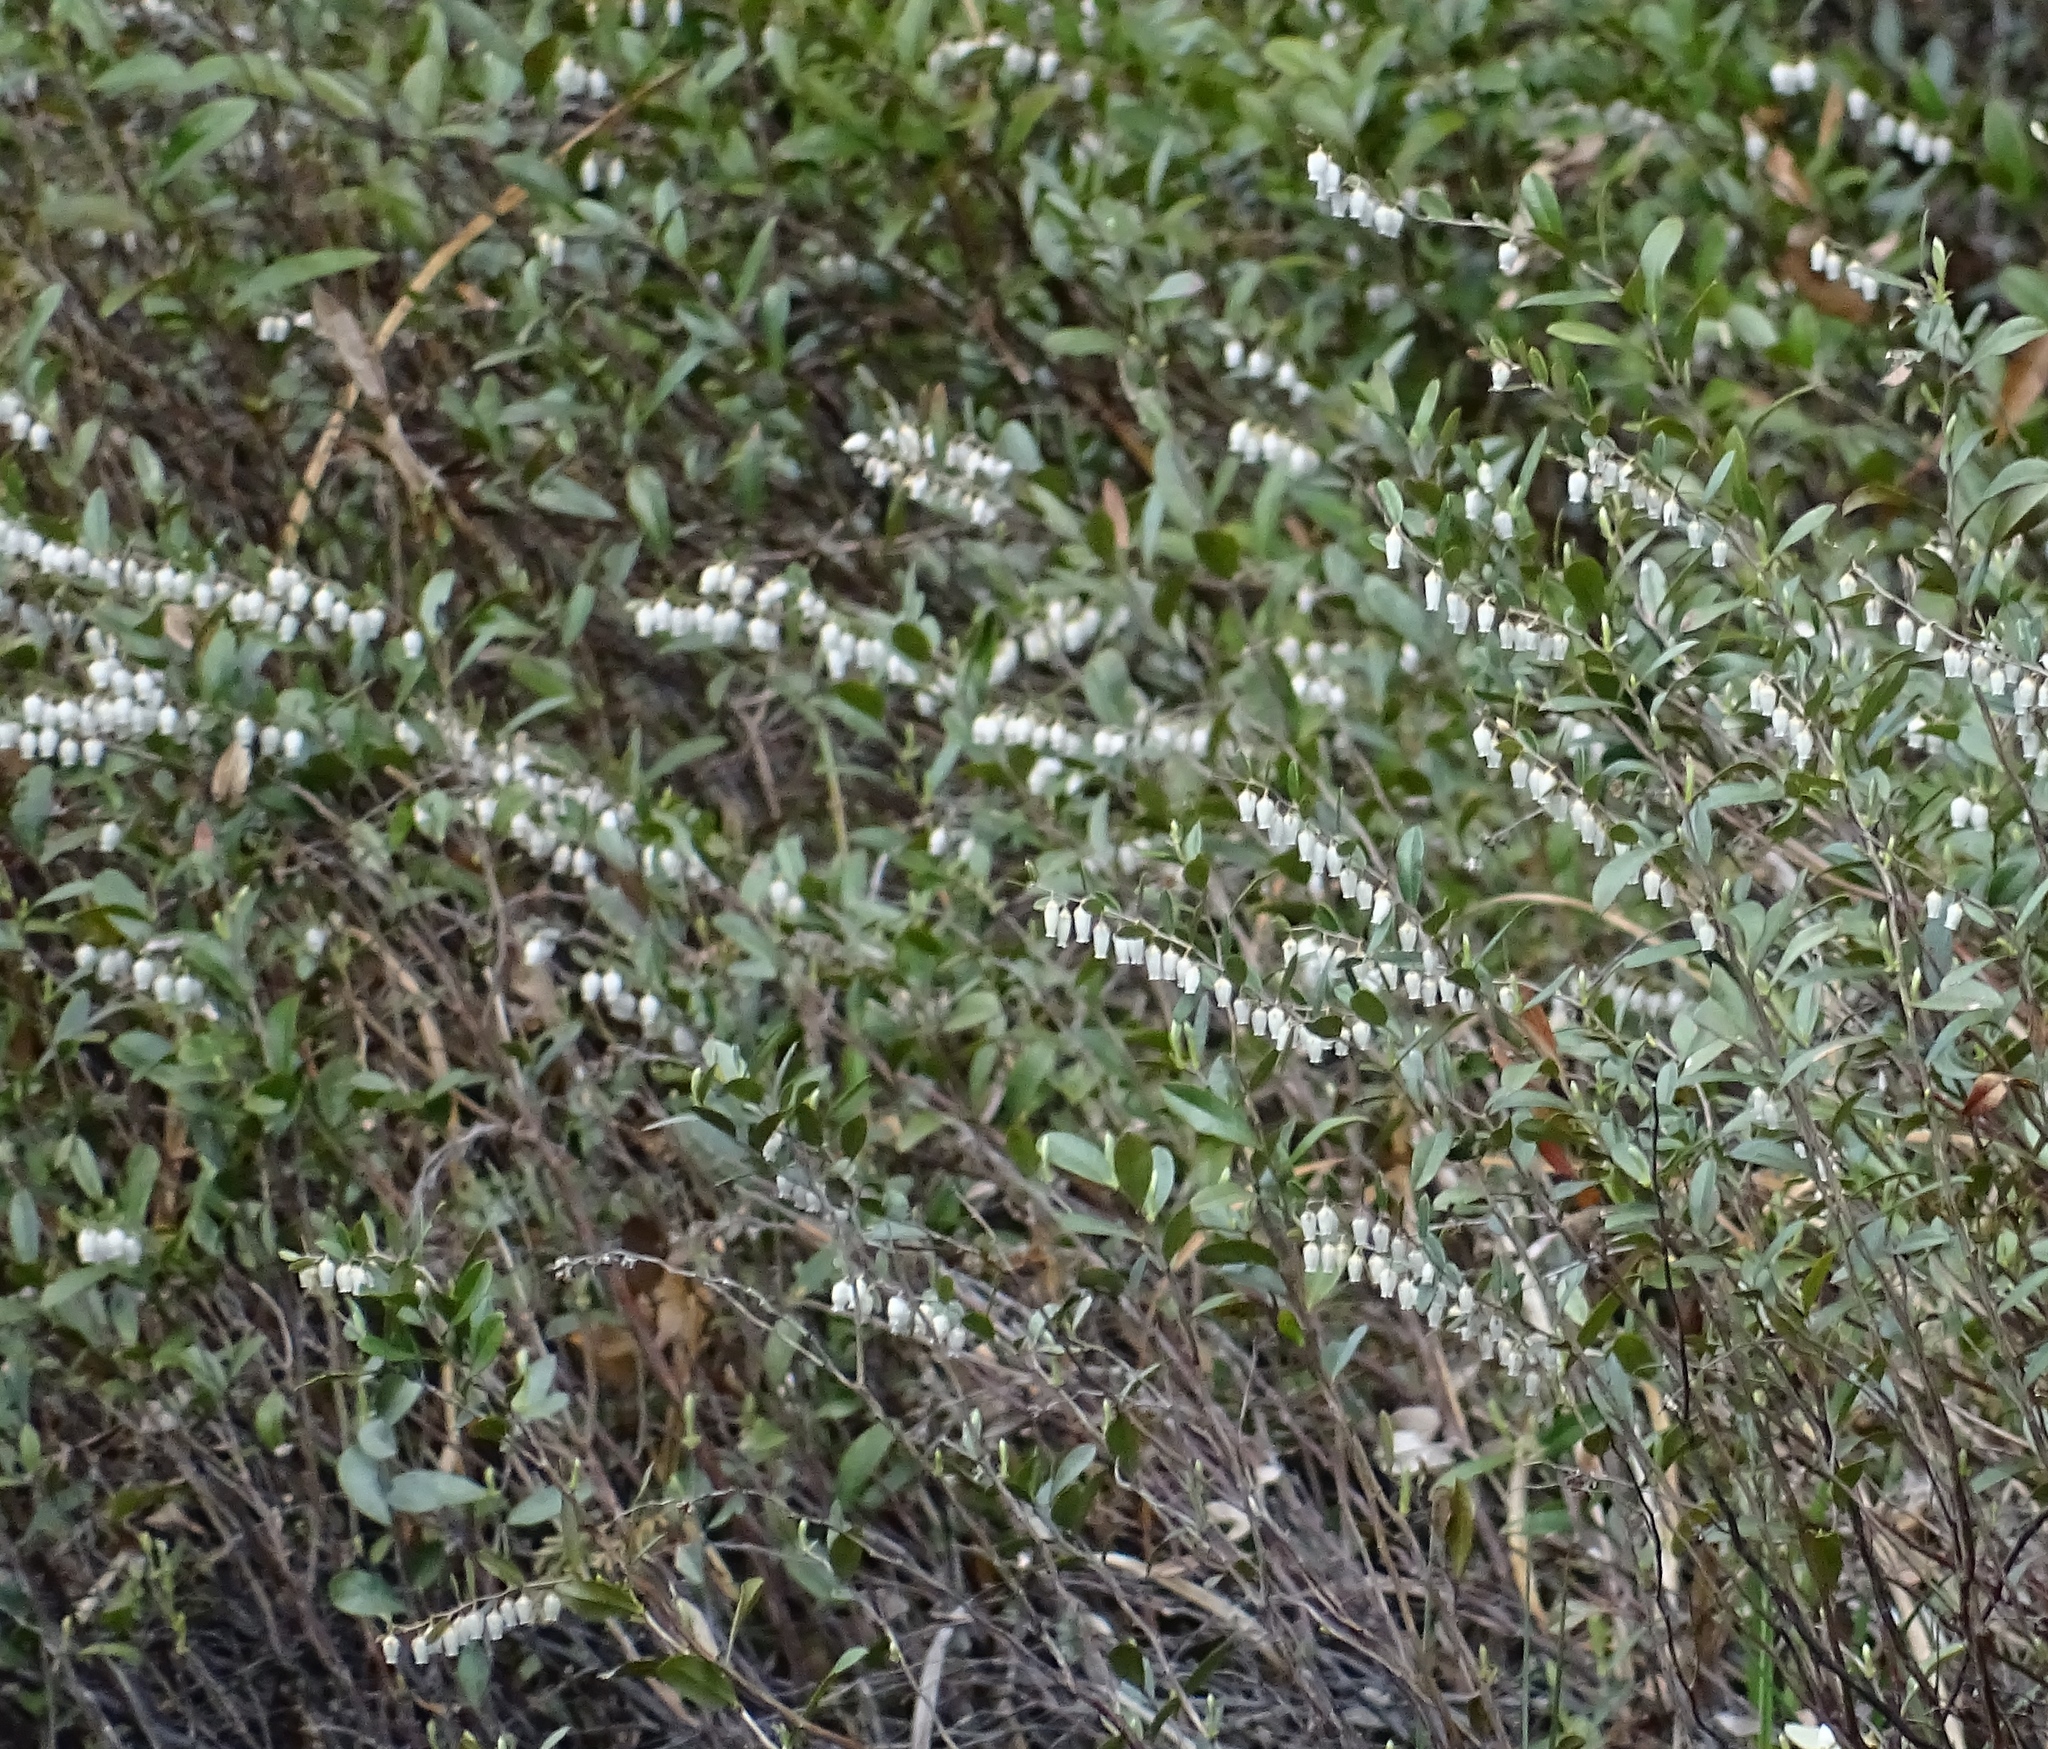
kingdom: Plantae
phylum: Tracheophyta
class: Magnoliopsida
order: Ericales
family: Ericaceae
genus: Chamaedaphne
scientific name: Chamaedaphne calyculata
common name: Leatherleaf
